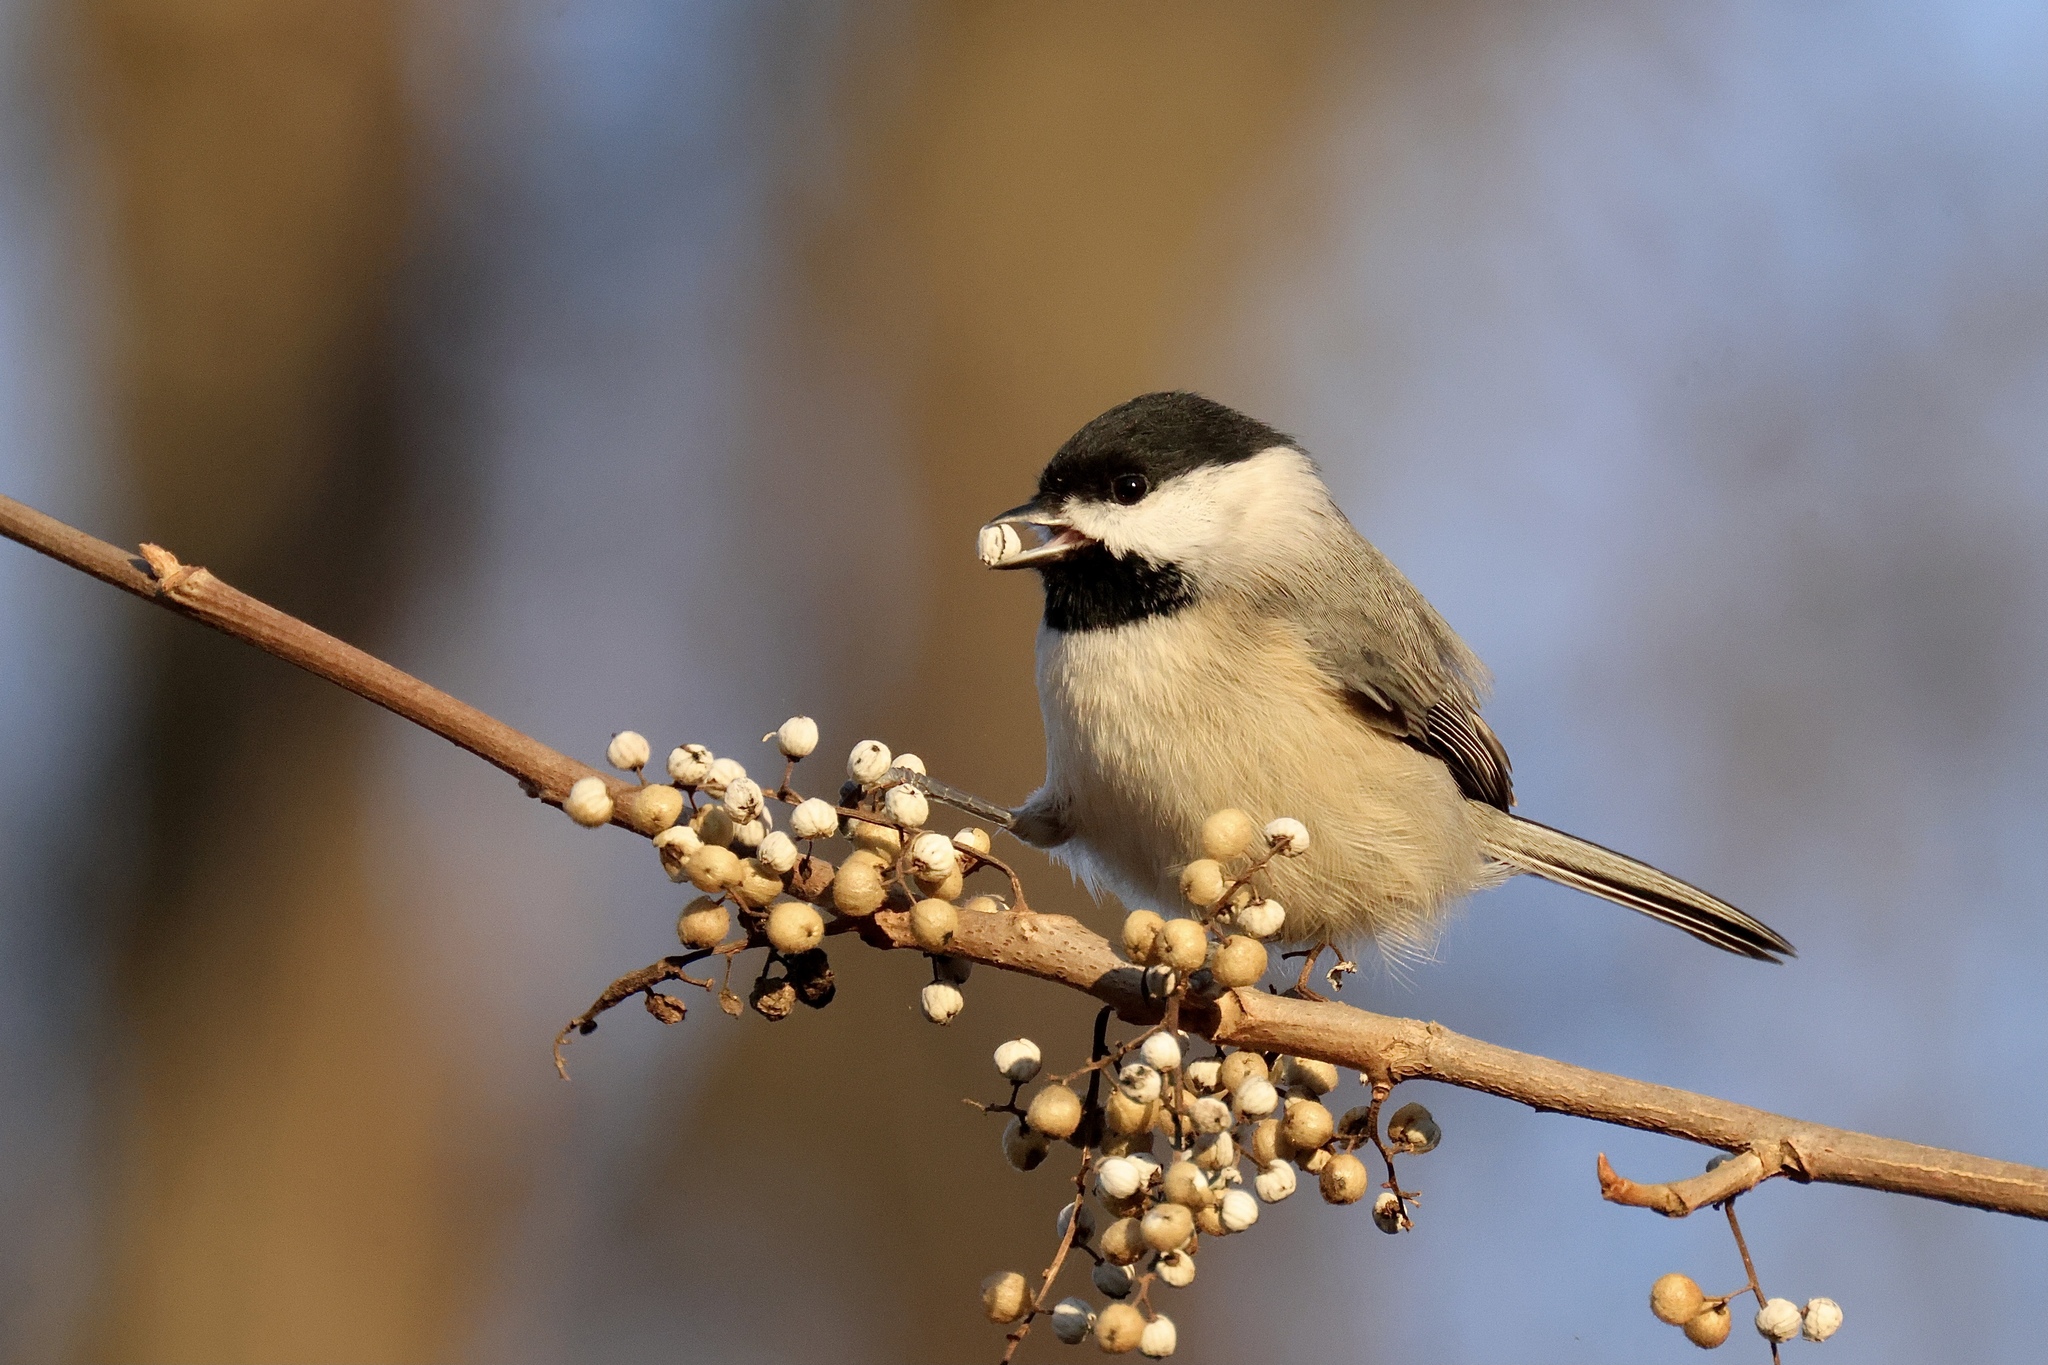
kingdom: Animalia
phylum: Chordata
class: Aves
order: Passeriformes
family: Paridae
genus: Poecile
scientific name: Poecile carolinensis
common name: Carolina chickadee
